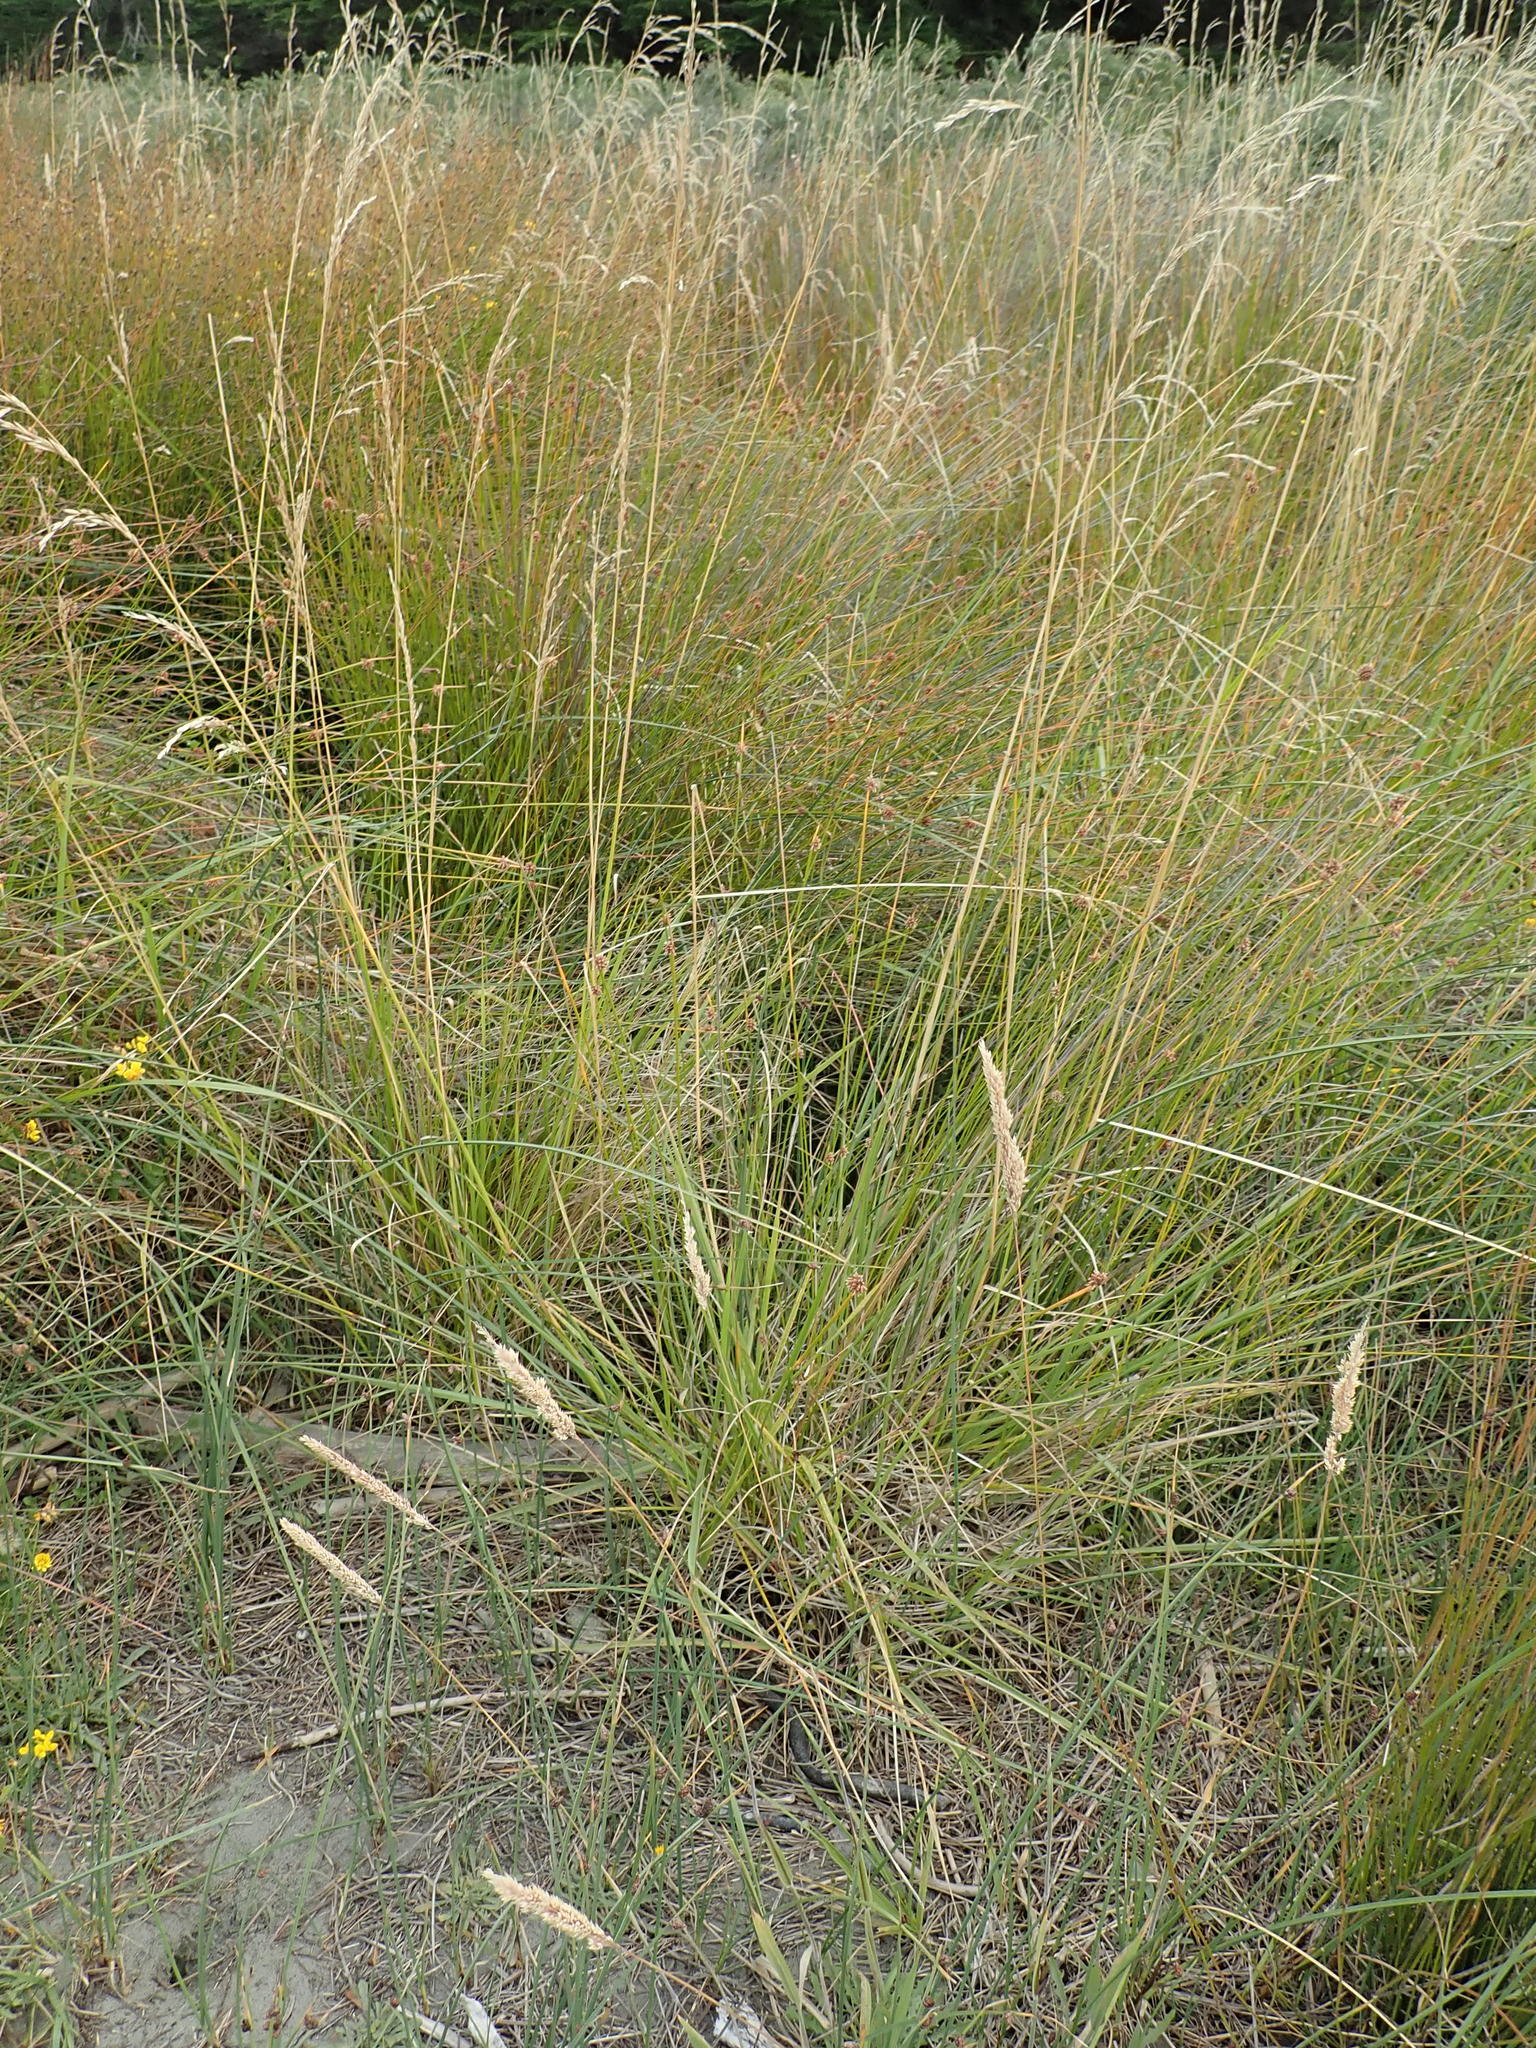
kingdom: Plantae
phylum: Tracheophyta
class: Liliopsida
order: Poales
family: Poaceae
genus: Lolium
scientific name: Lolium arundinaceum
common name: Reed fescue
